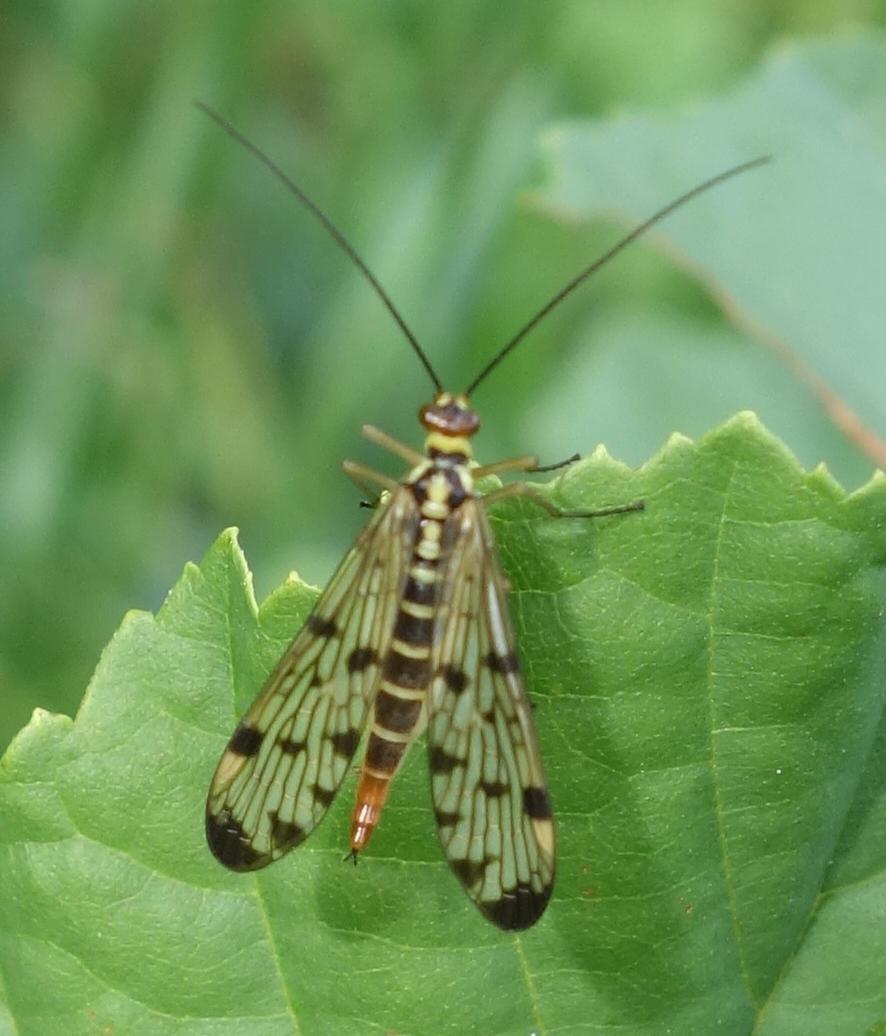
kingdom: Animalia
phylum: Arthropoda
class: Insecta
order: Mecoptera
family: Panorpidae
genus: Panorpa
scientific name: Panorpa germanica
